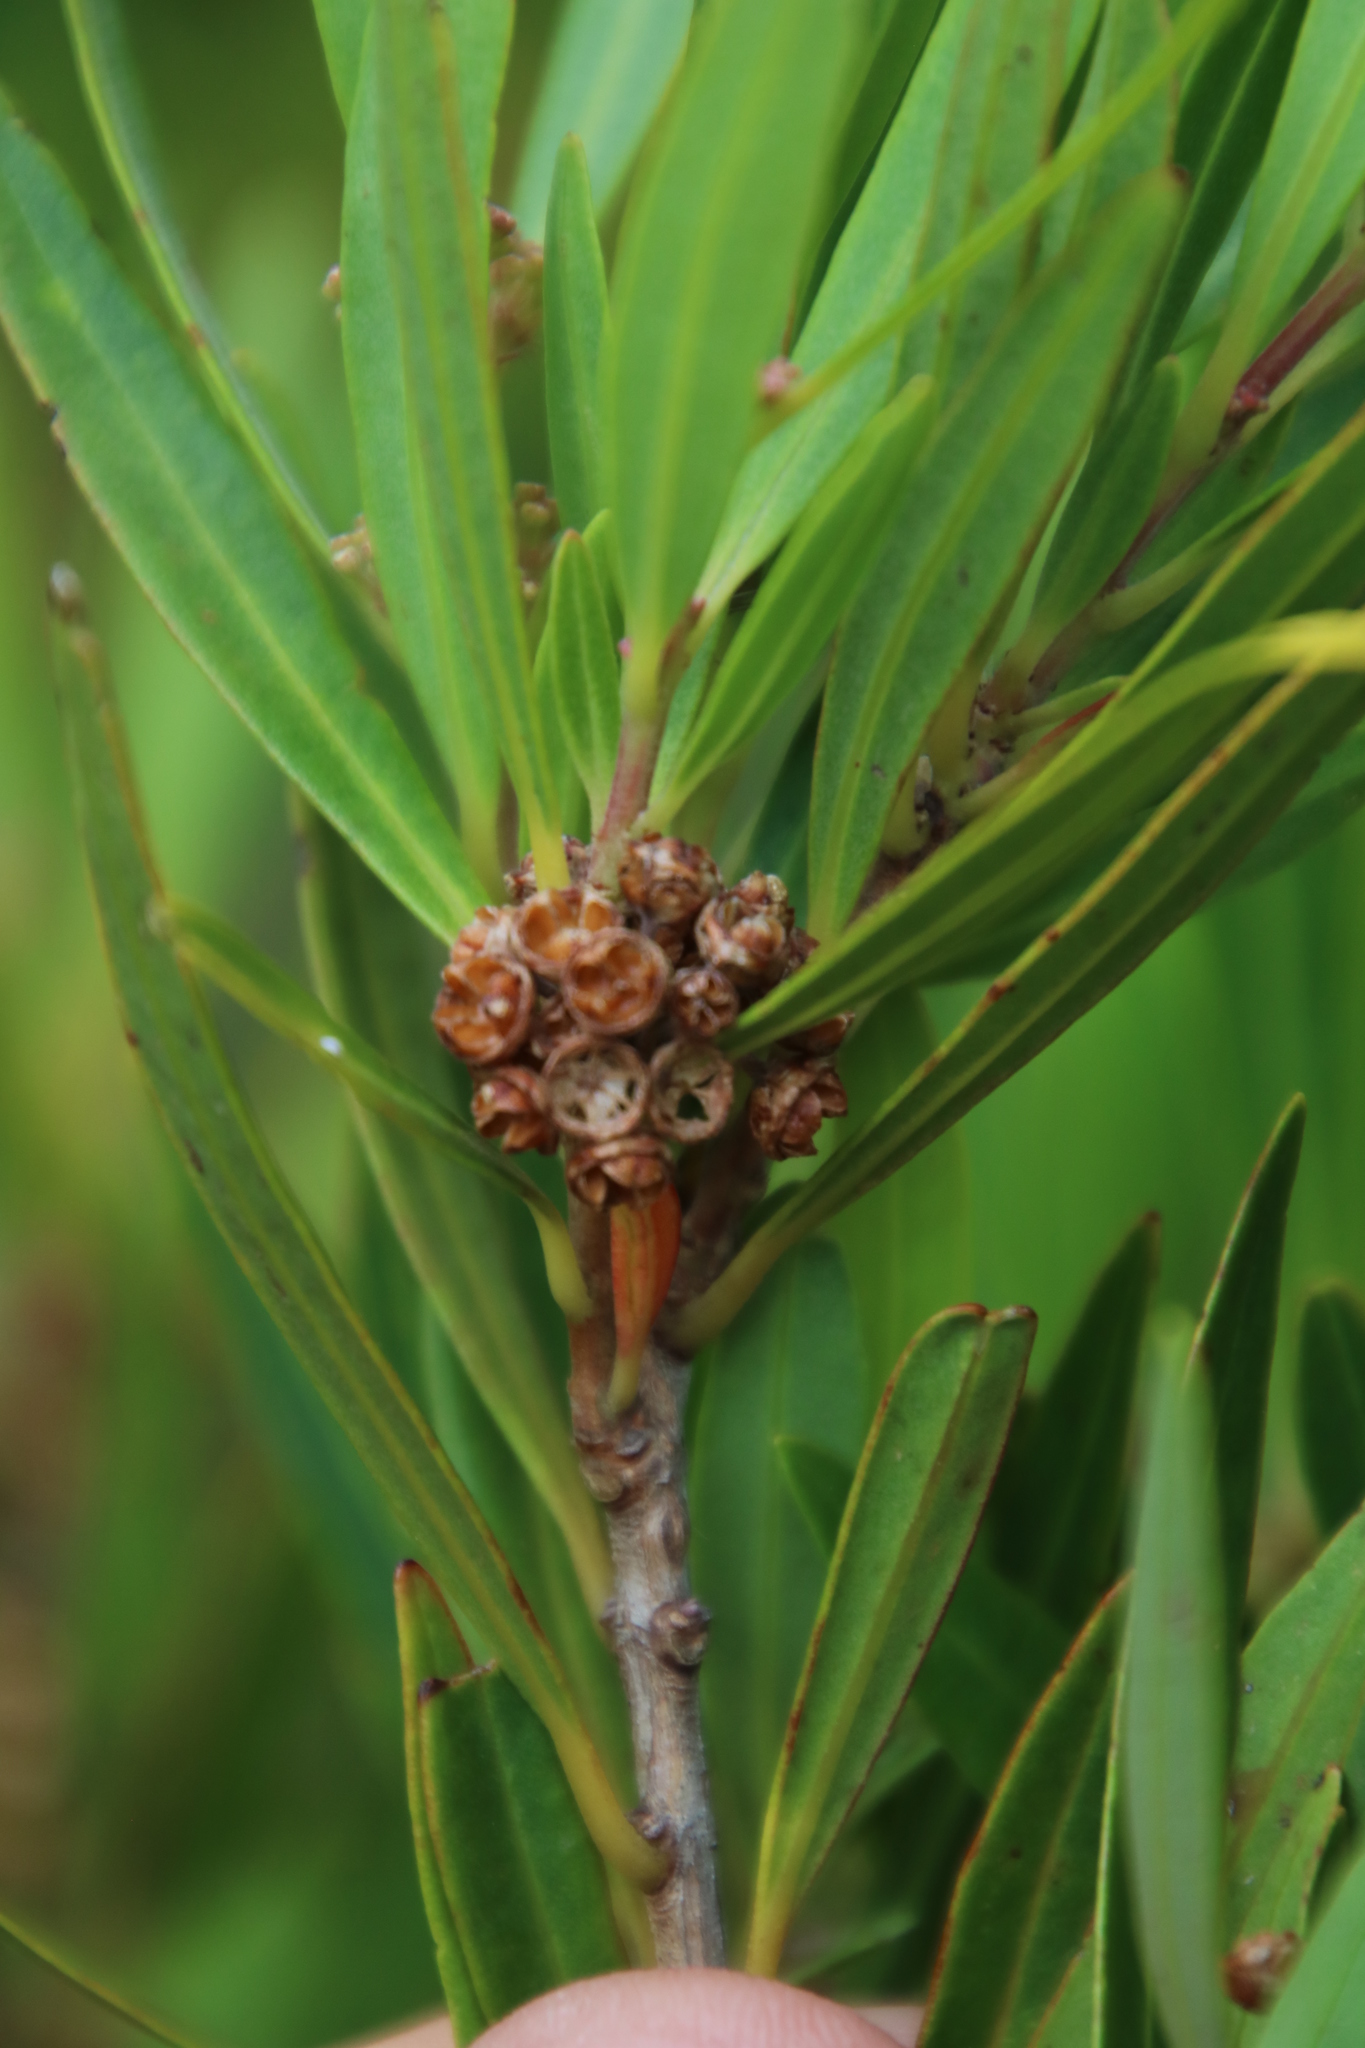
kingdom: Plantae
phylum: Tracheophyta
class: Magnoliopsida
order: Myrtales
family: Myrtaceae
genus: Callistemon
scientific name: Callistemon lanceolatus
